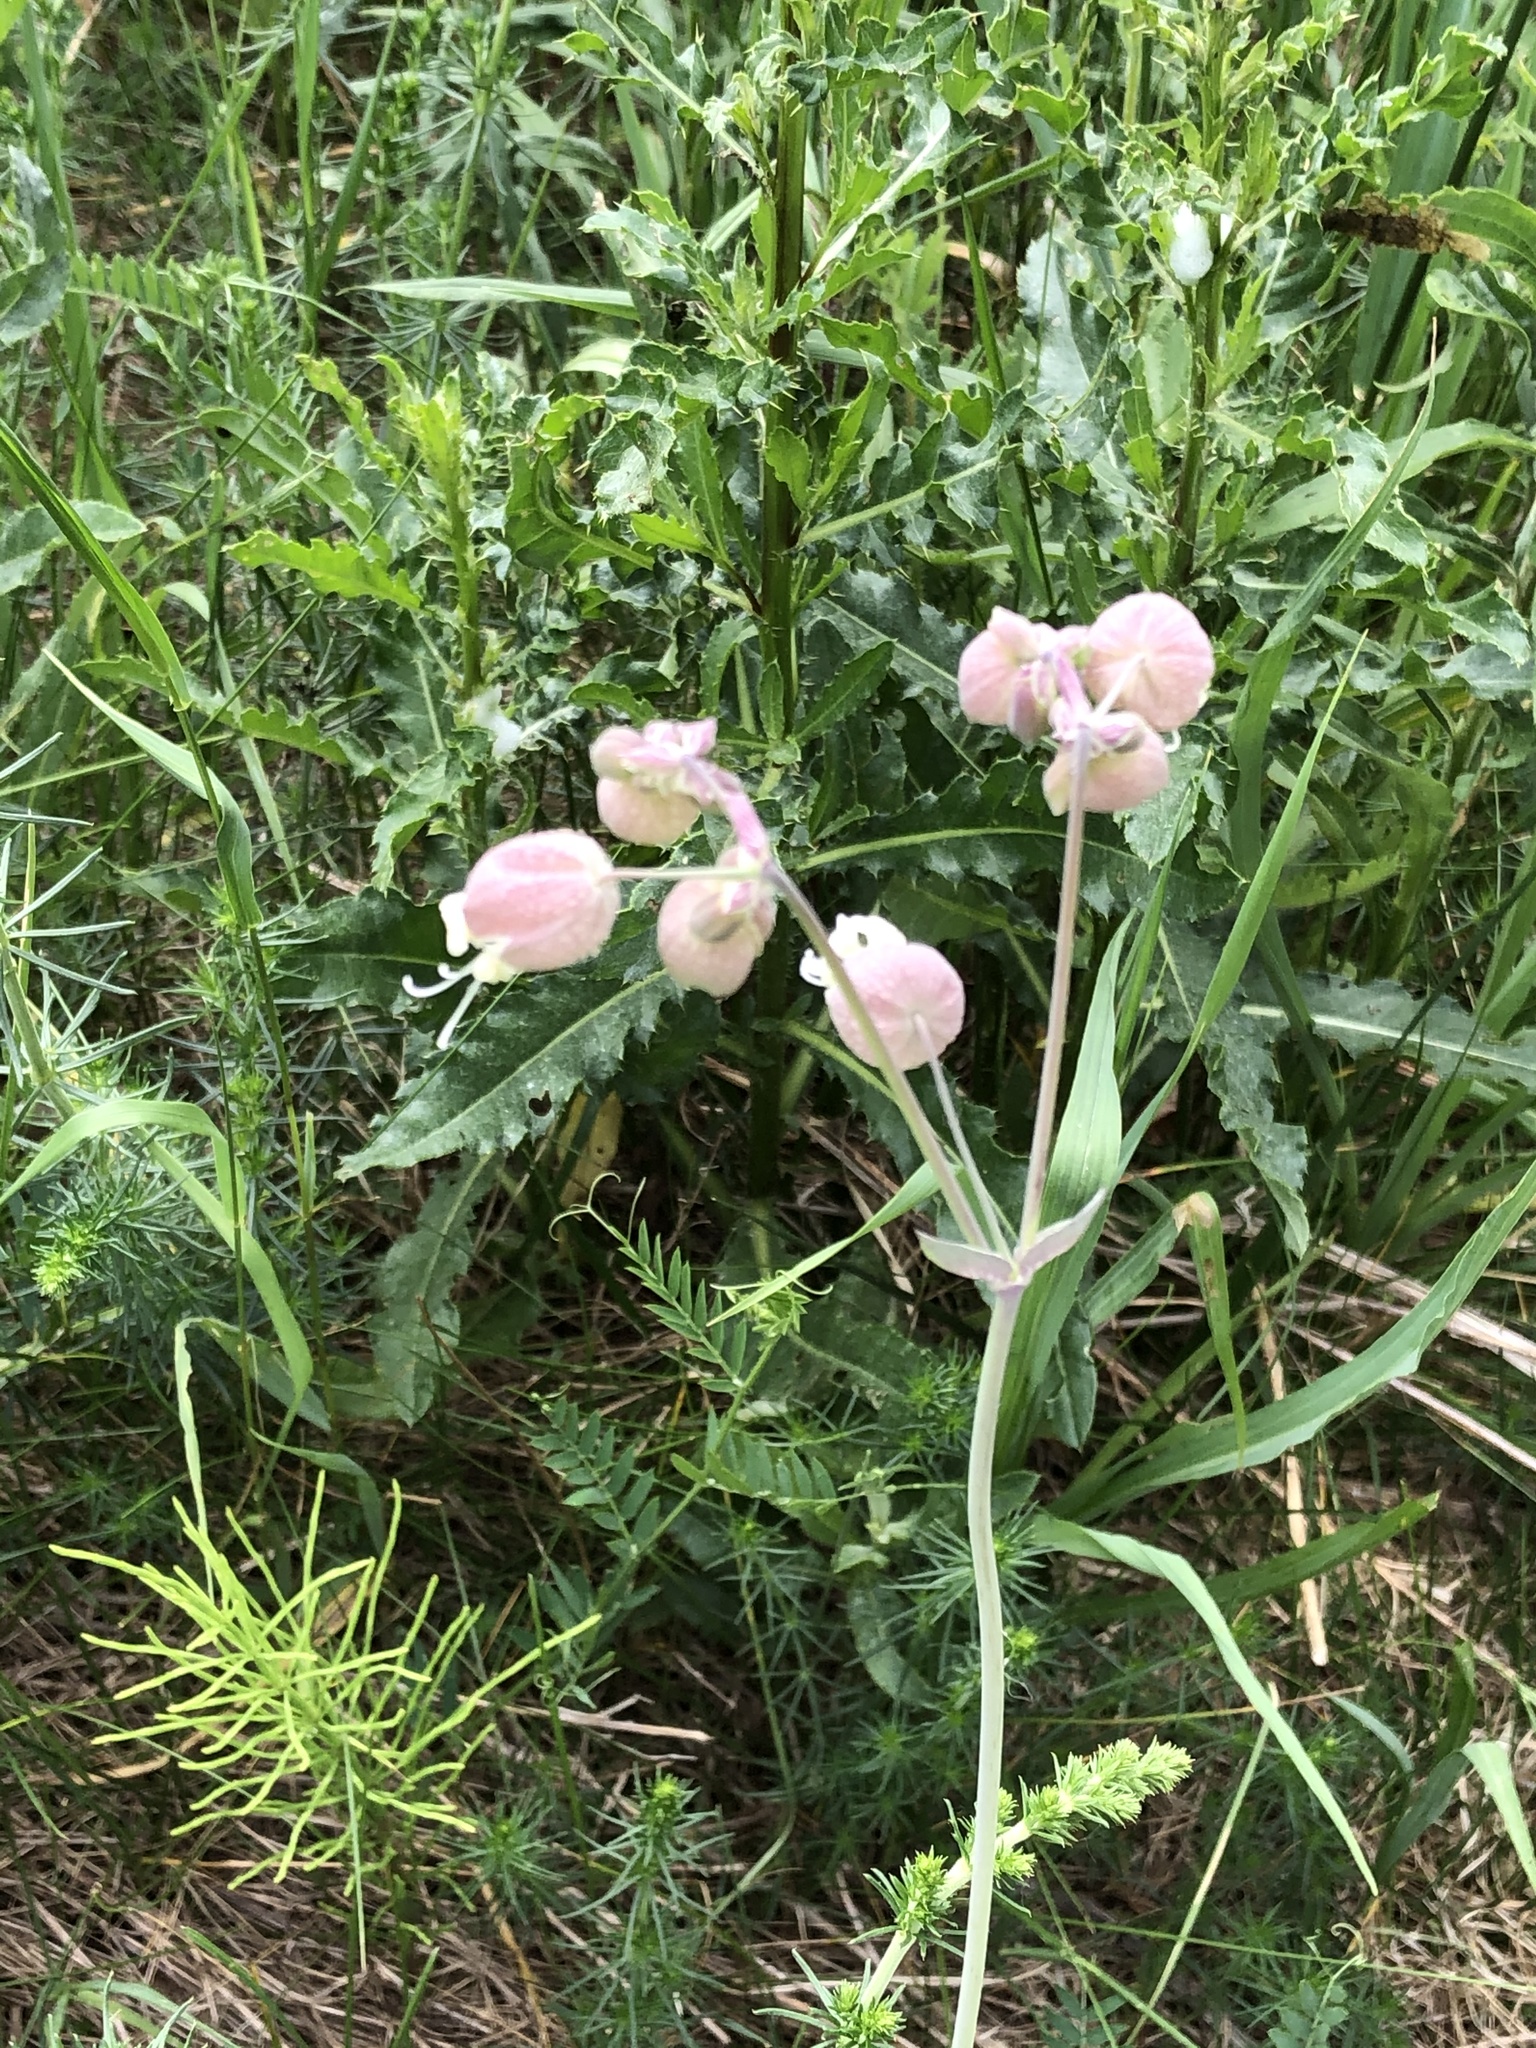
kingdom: Plantae
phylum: Tracheophyta
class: Magnoliopsida
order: Caryophyllales
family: Caryophyllaceae
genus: Silene
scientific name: Silene vulgaris
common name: Bladder campion
